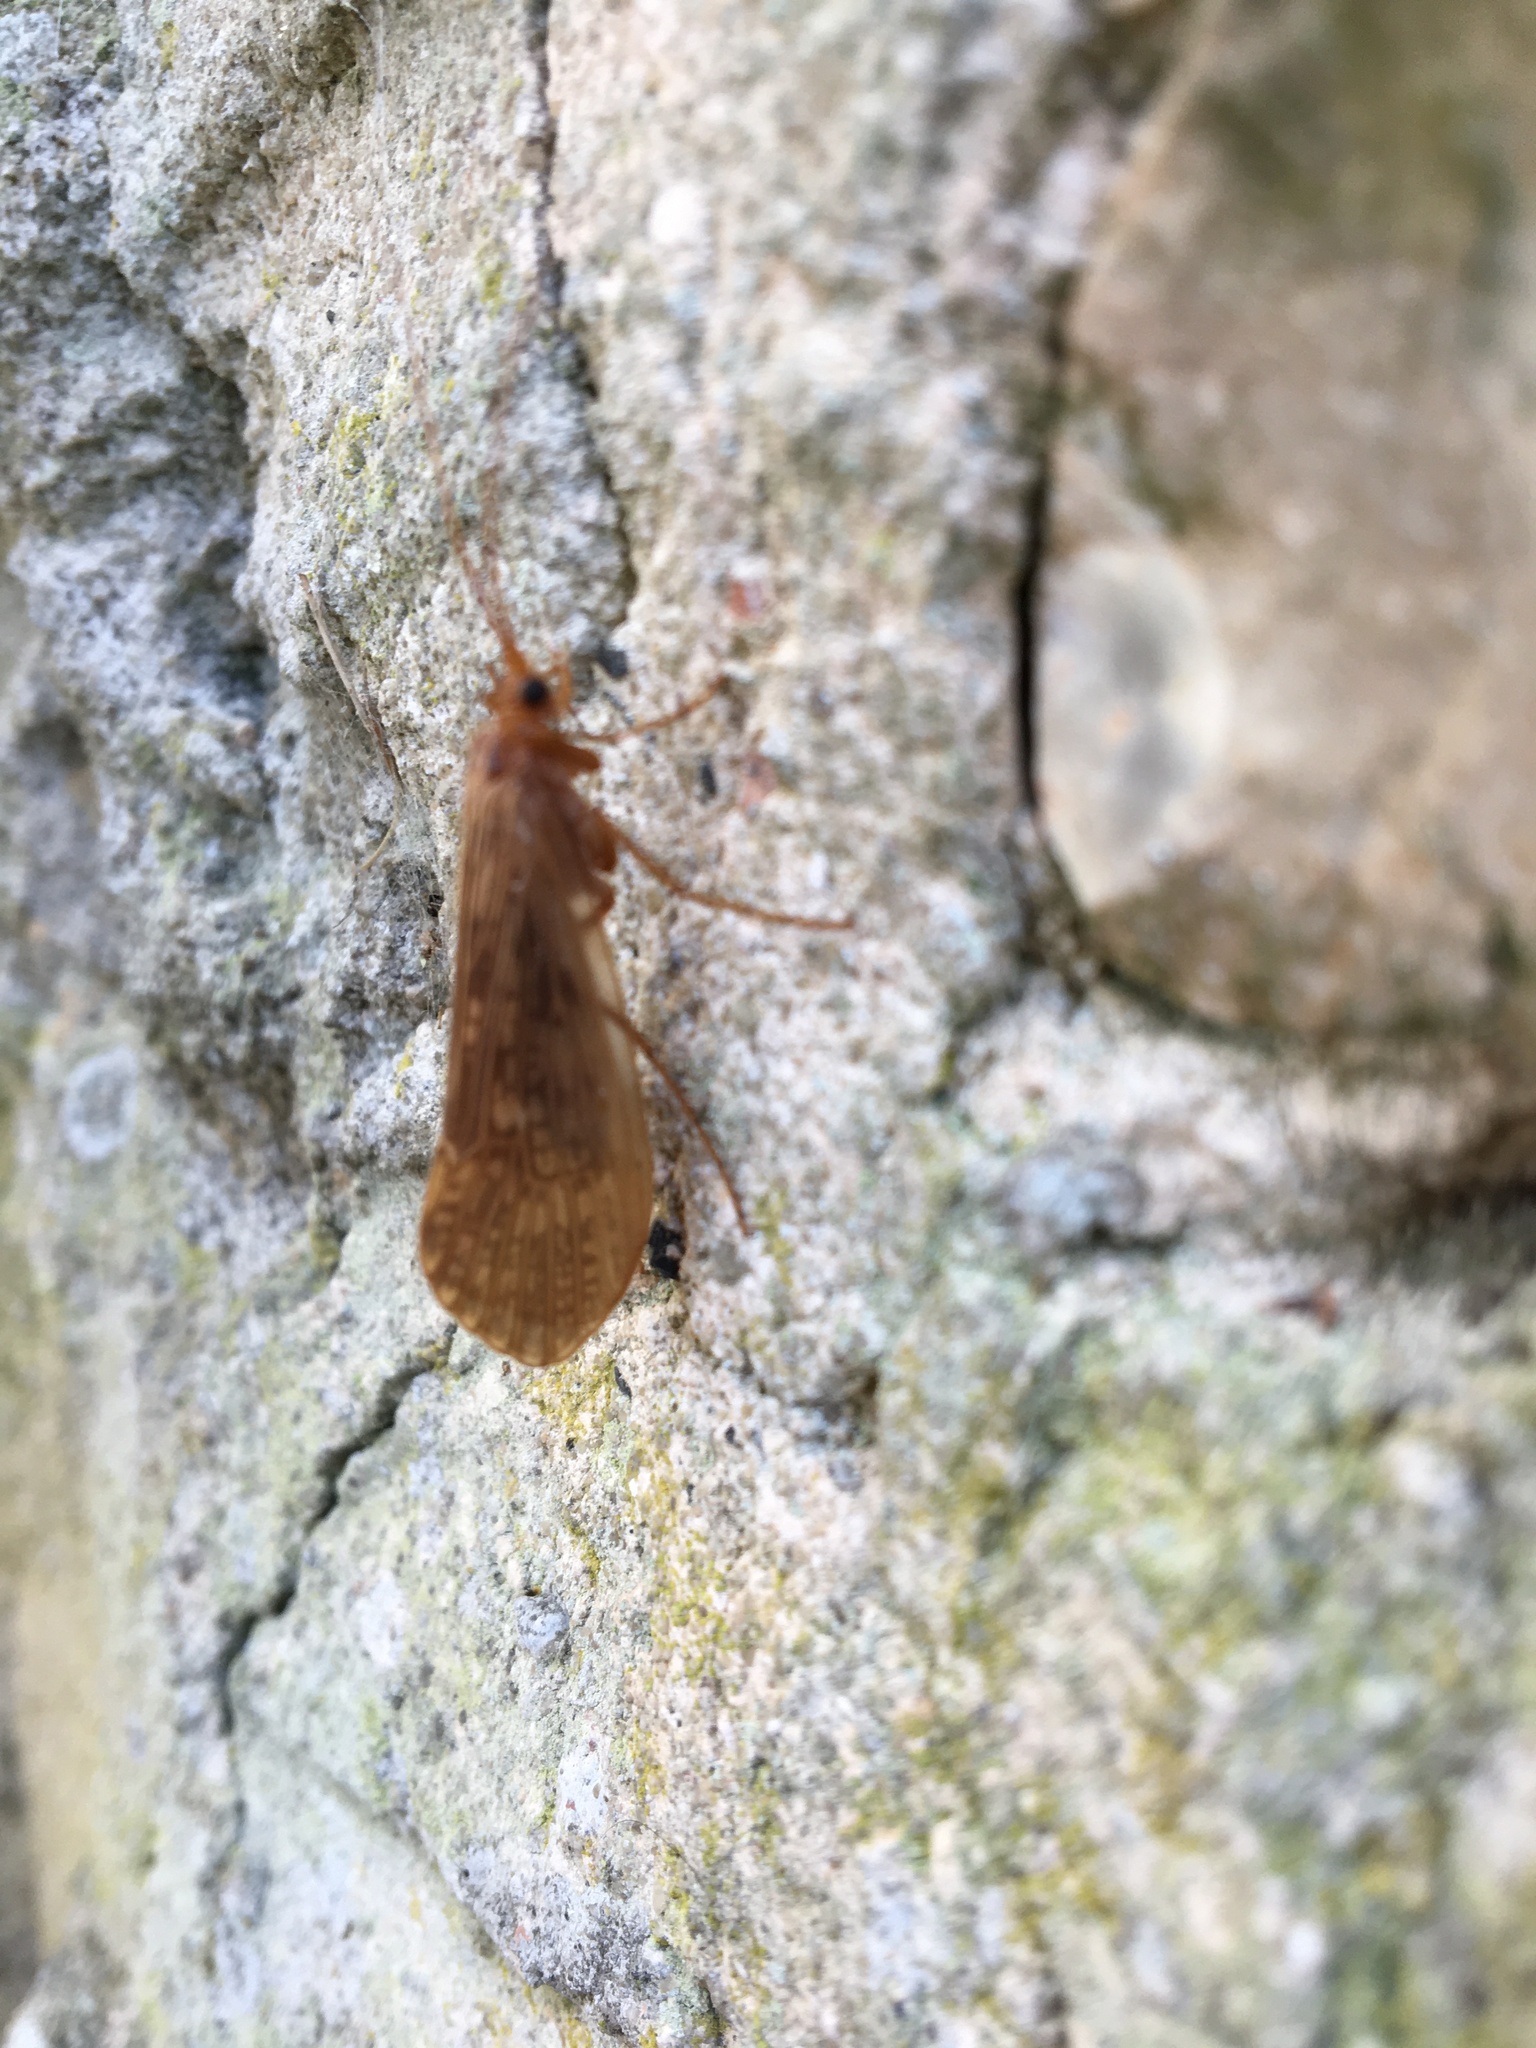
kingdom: Animalia
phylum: Arthropoda
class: Insecta
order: Trichoptera
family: Limnephilidae
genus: Halesus
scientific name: Halesus digitatus
